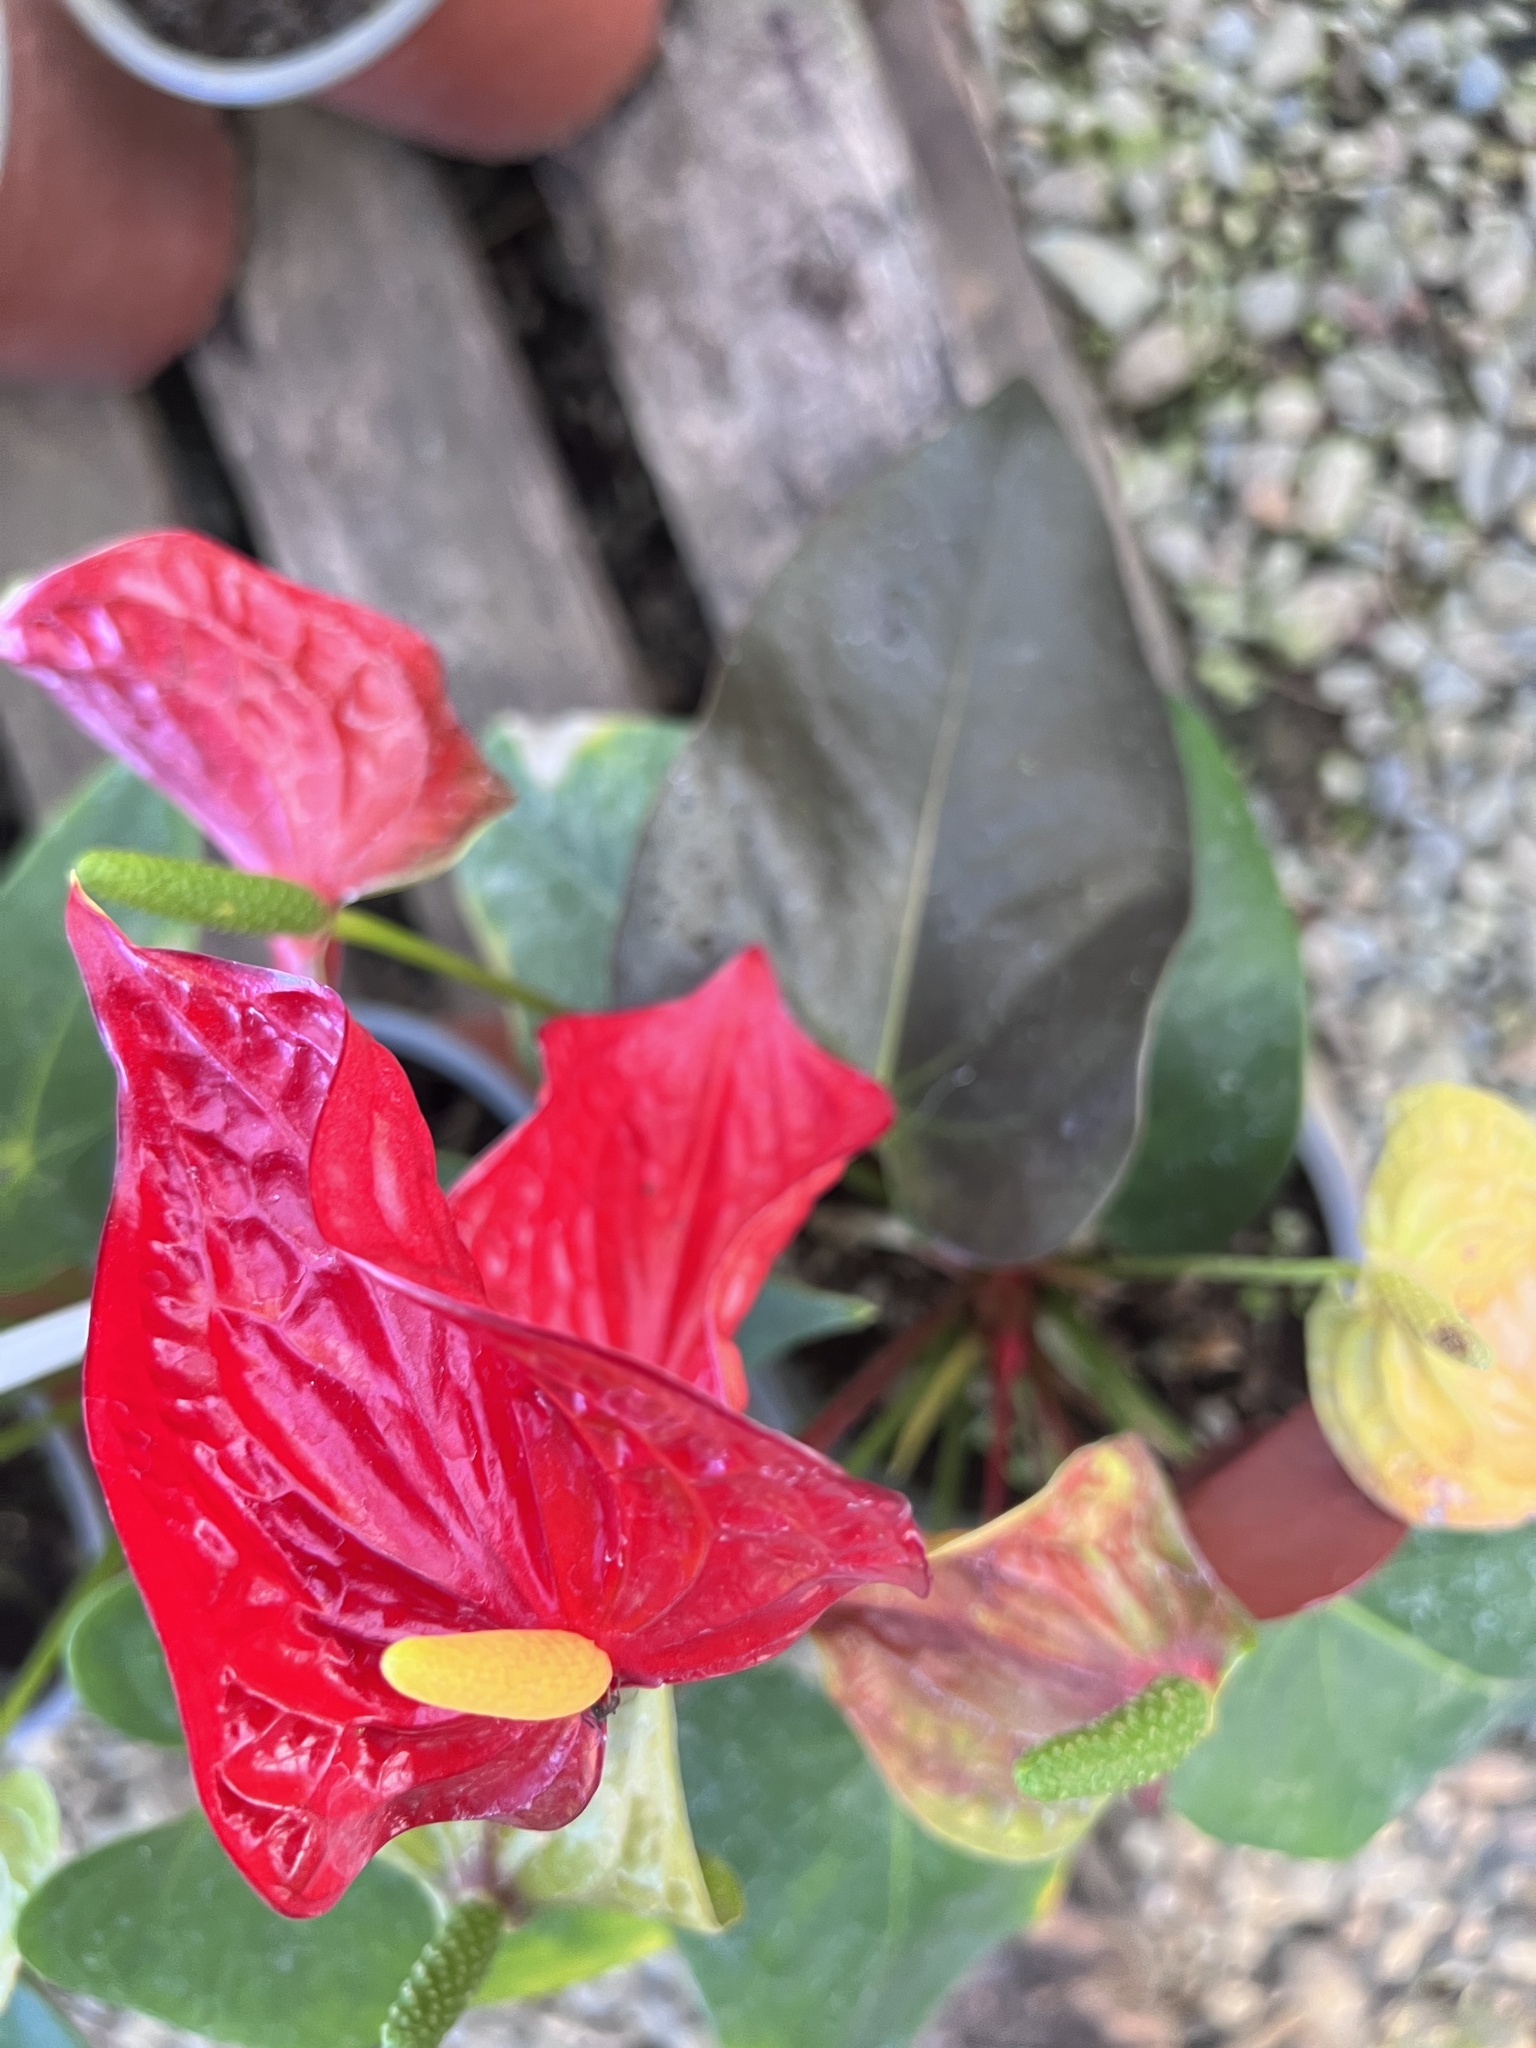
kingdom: Plantae
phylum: Tracheophyta
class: Liliopsida
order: Alismatales
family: Araceae
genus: Anthurium
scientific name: Anthurium andraeanum
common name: Flamingo-flower
